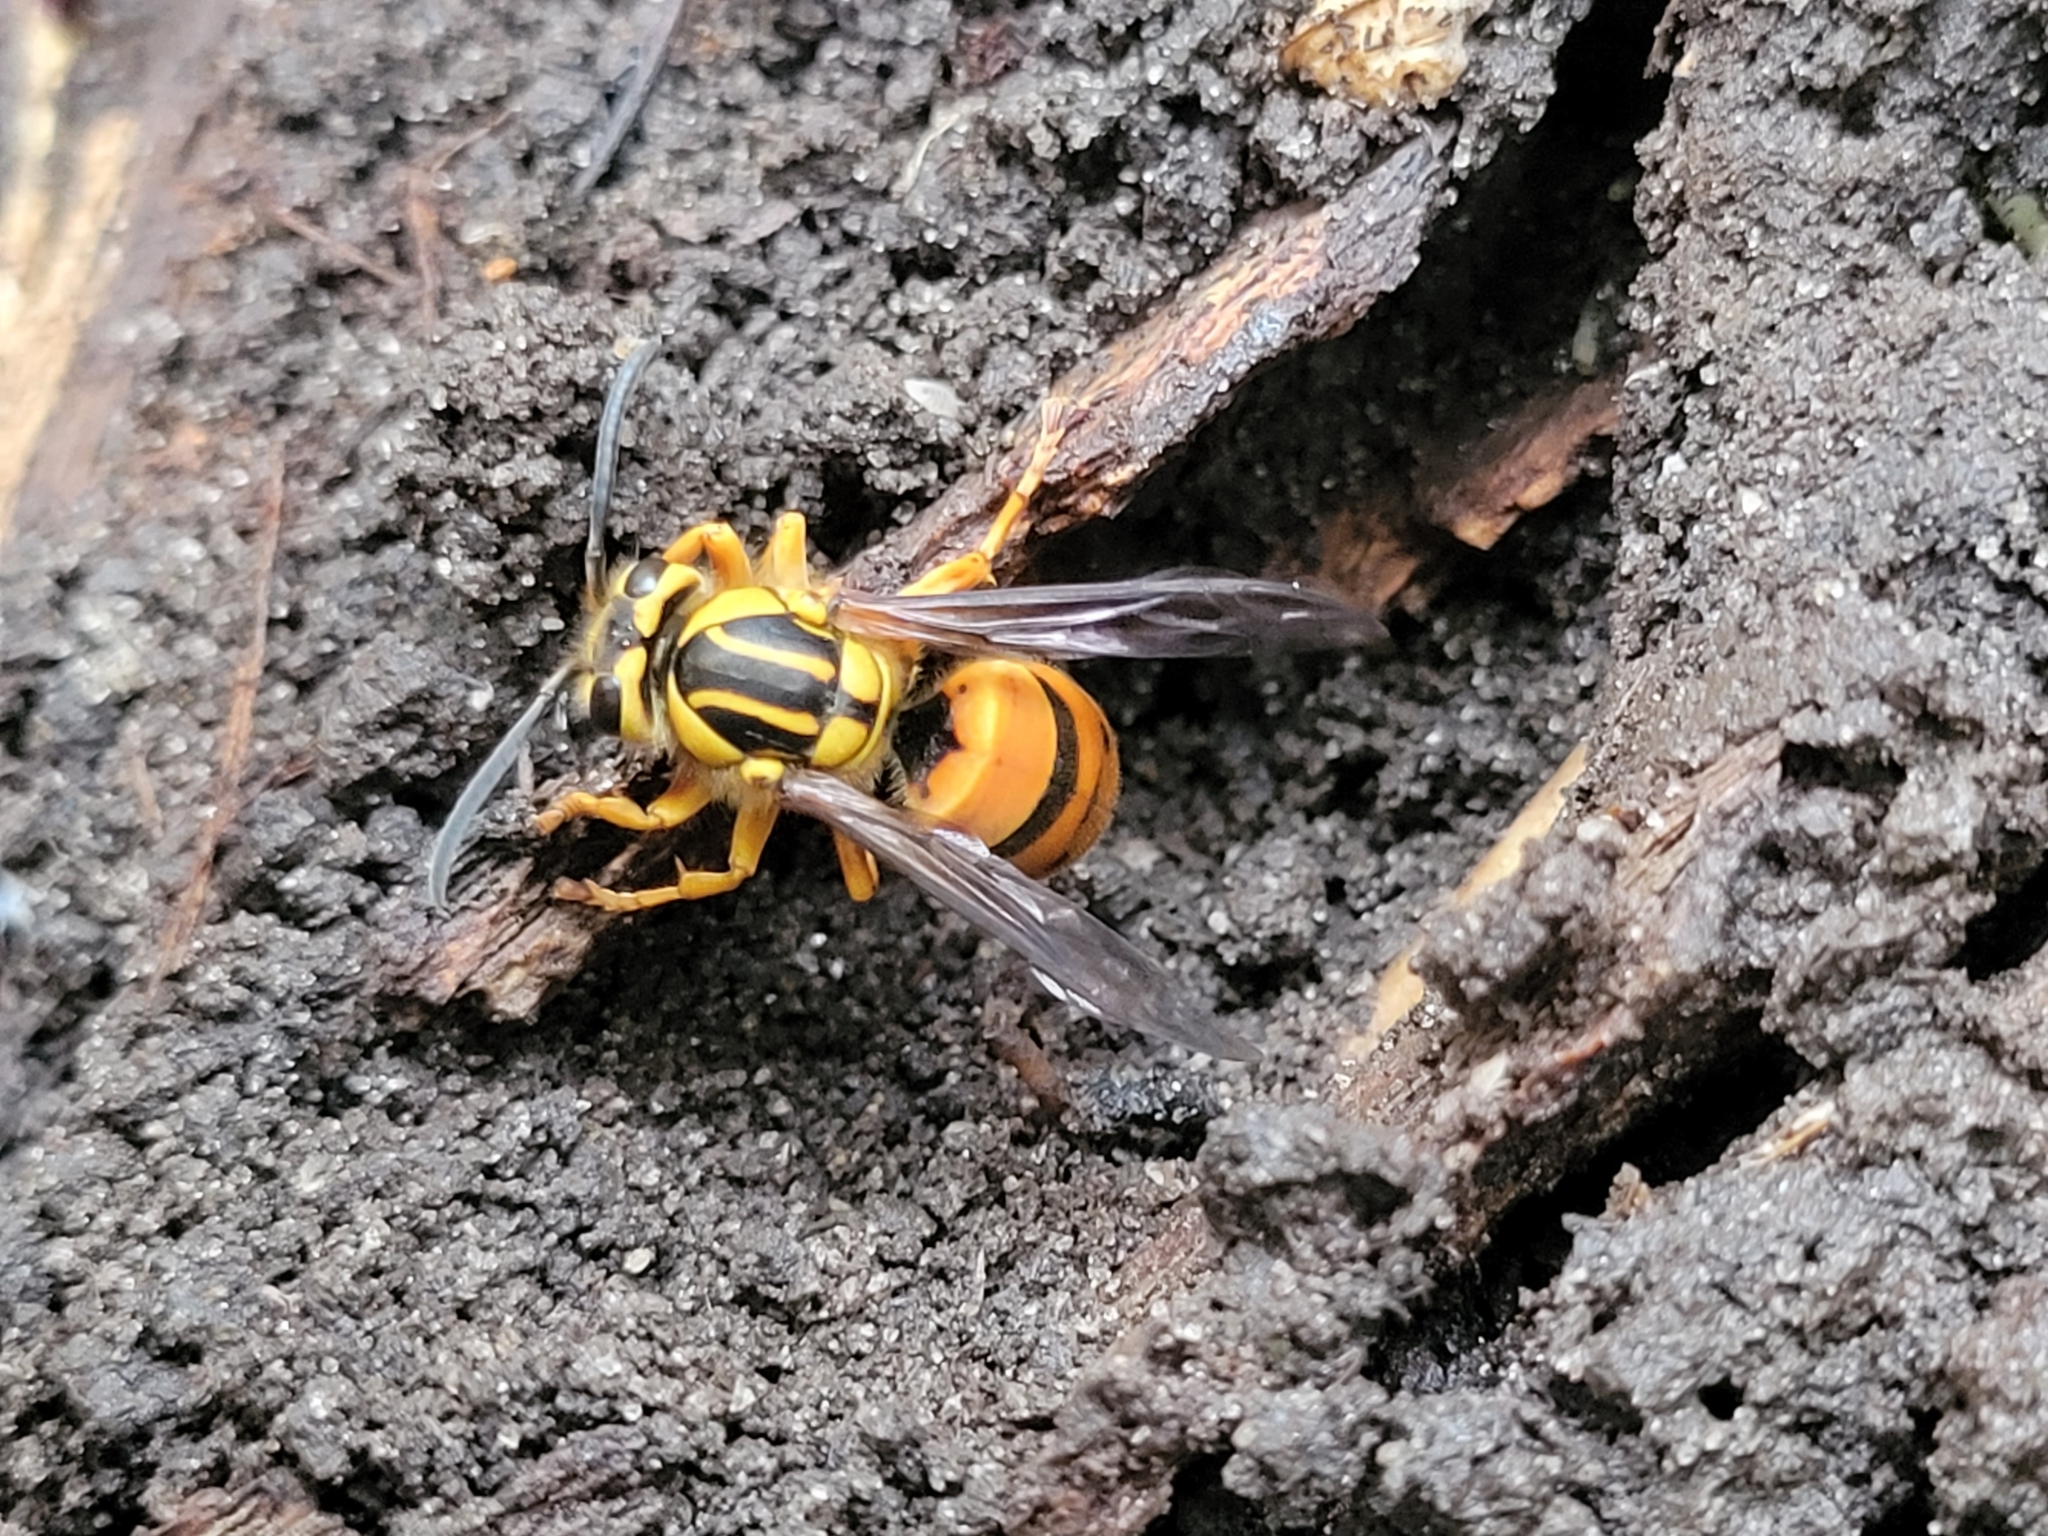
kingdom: Animalia
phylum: Arthropoda
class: Insecta
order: Hymenoptera
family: Vespidae
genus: Vespula
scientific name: Vespula squamosa
